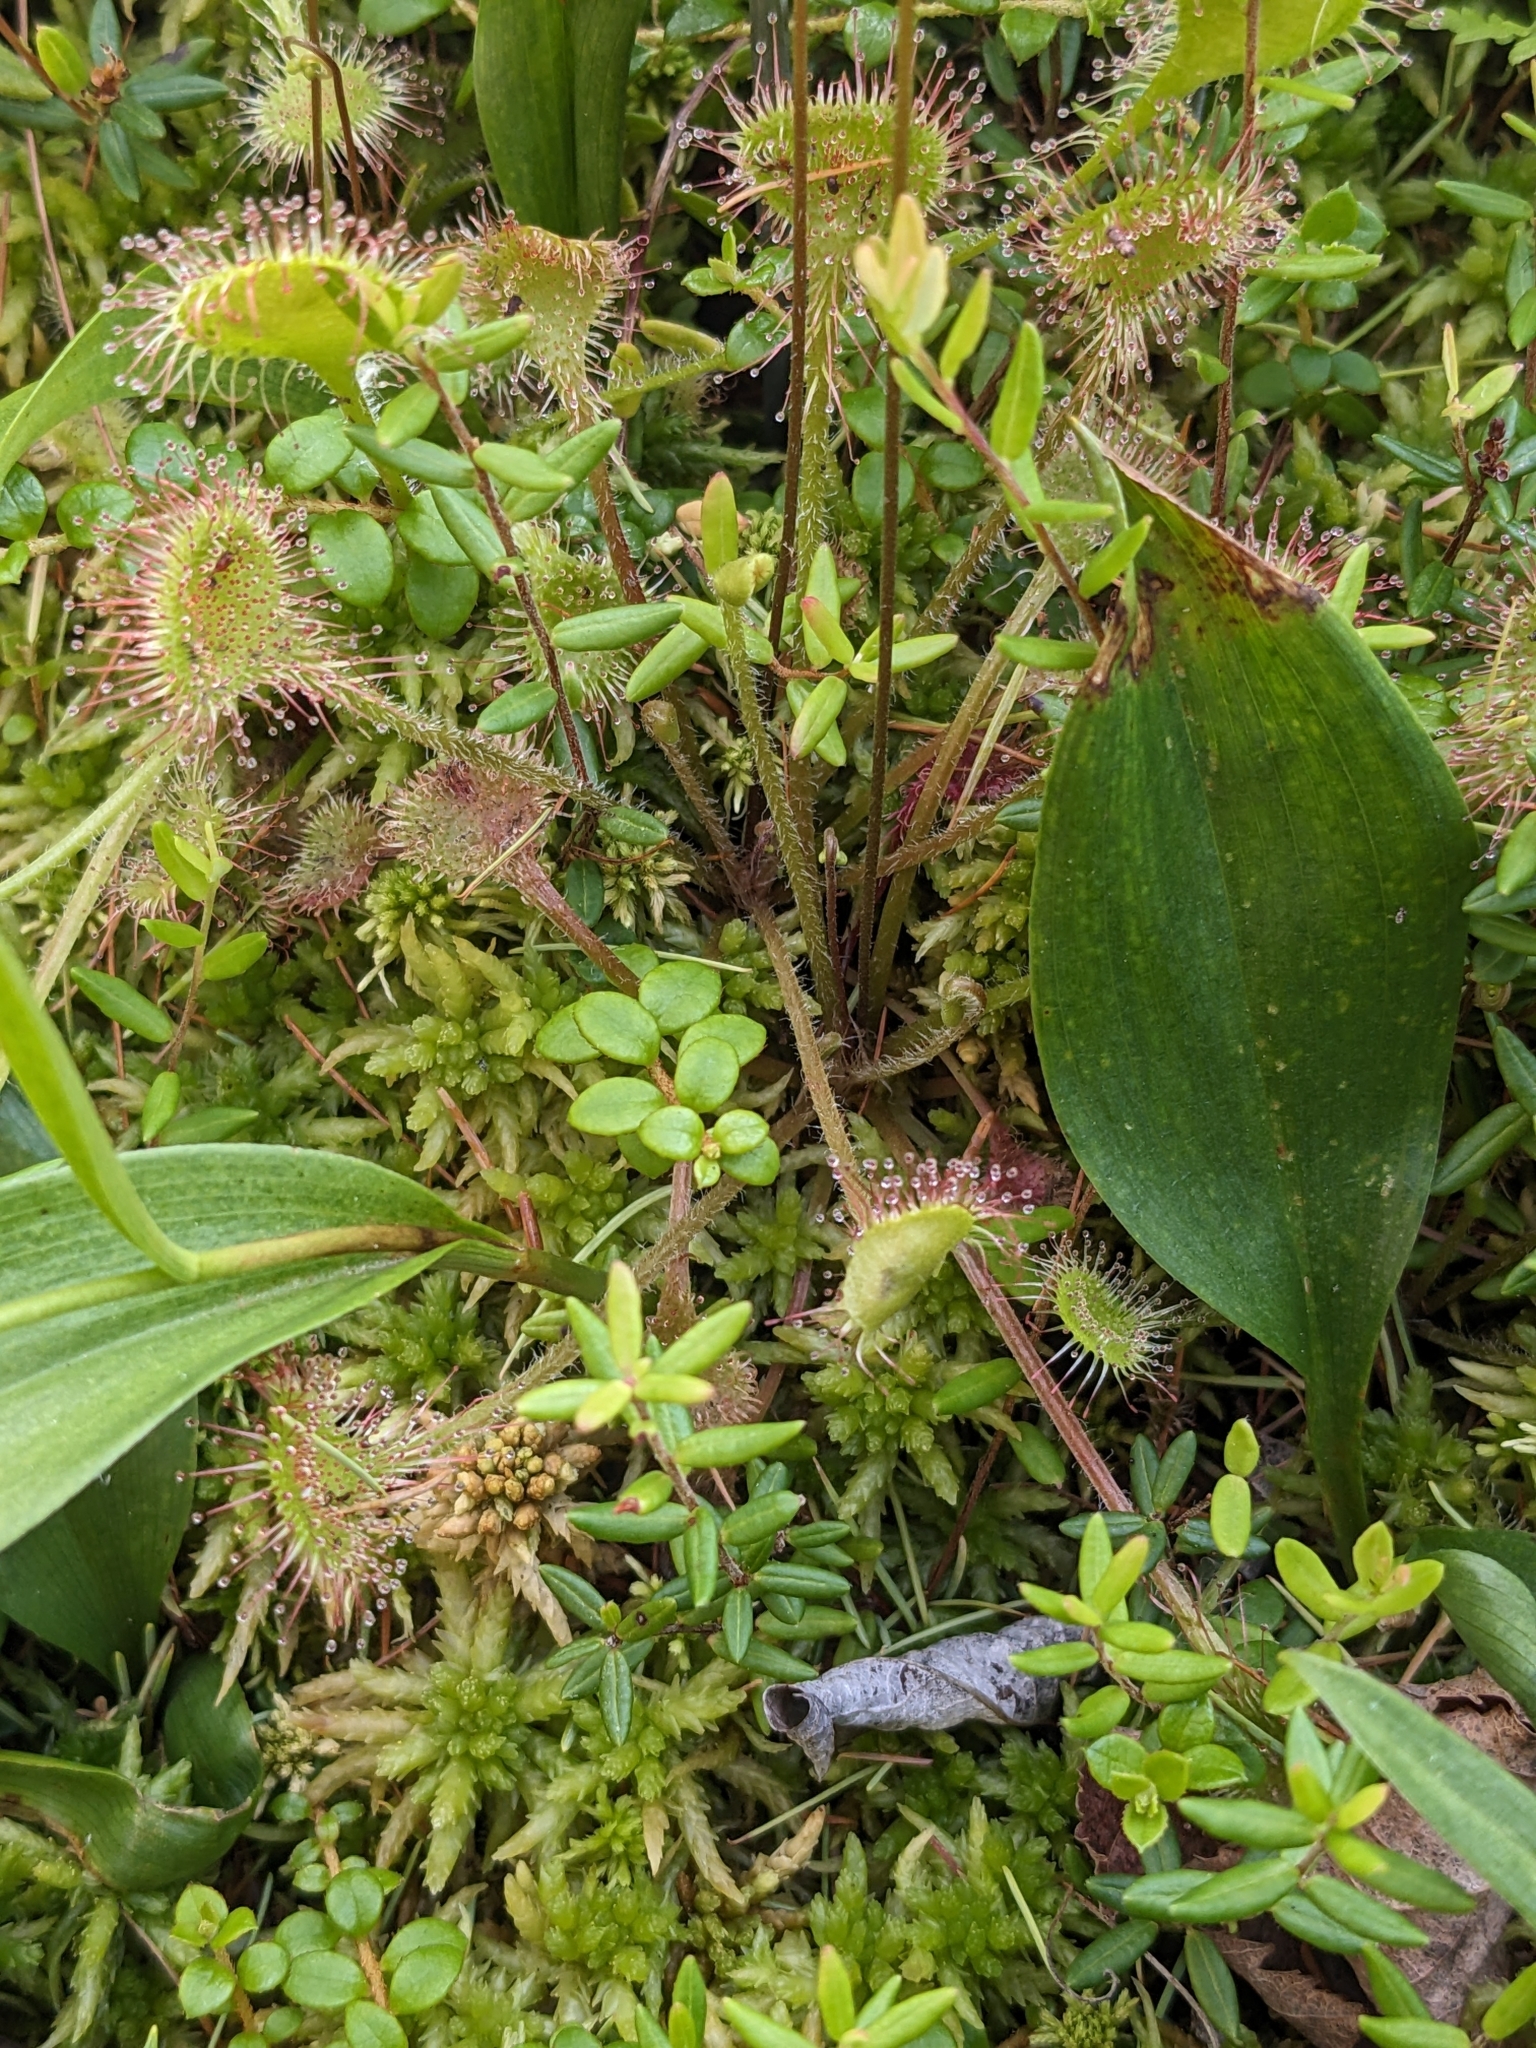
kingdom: Plantae
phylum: Tracheophyta
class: Magnoliopsida
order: Caryophyllales
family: Droseraceae
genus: Drosera
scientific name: Drosera rotundifolia
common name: Round-leaved sundew
